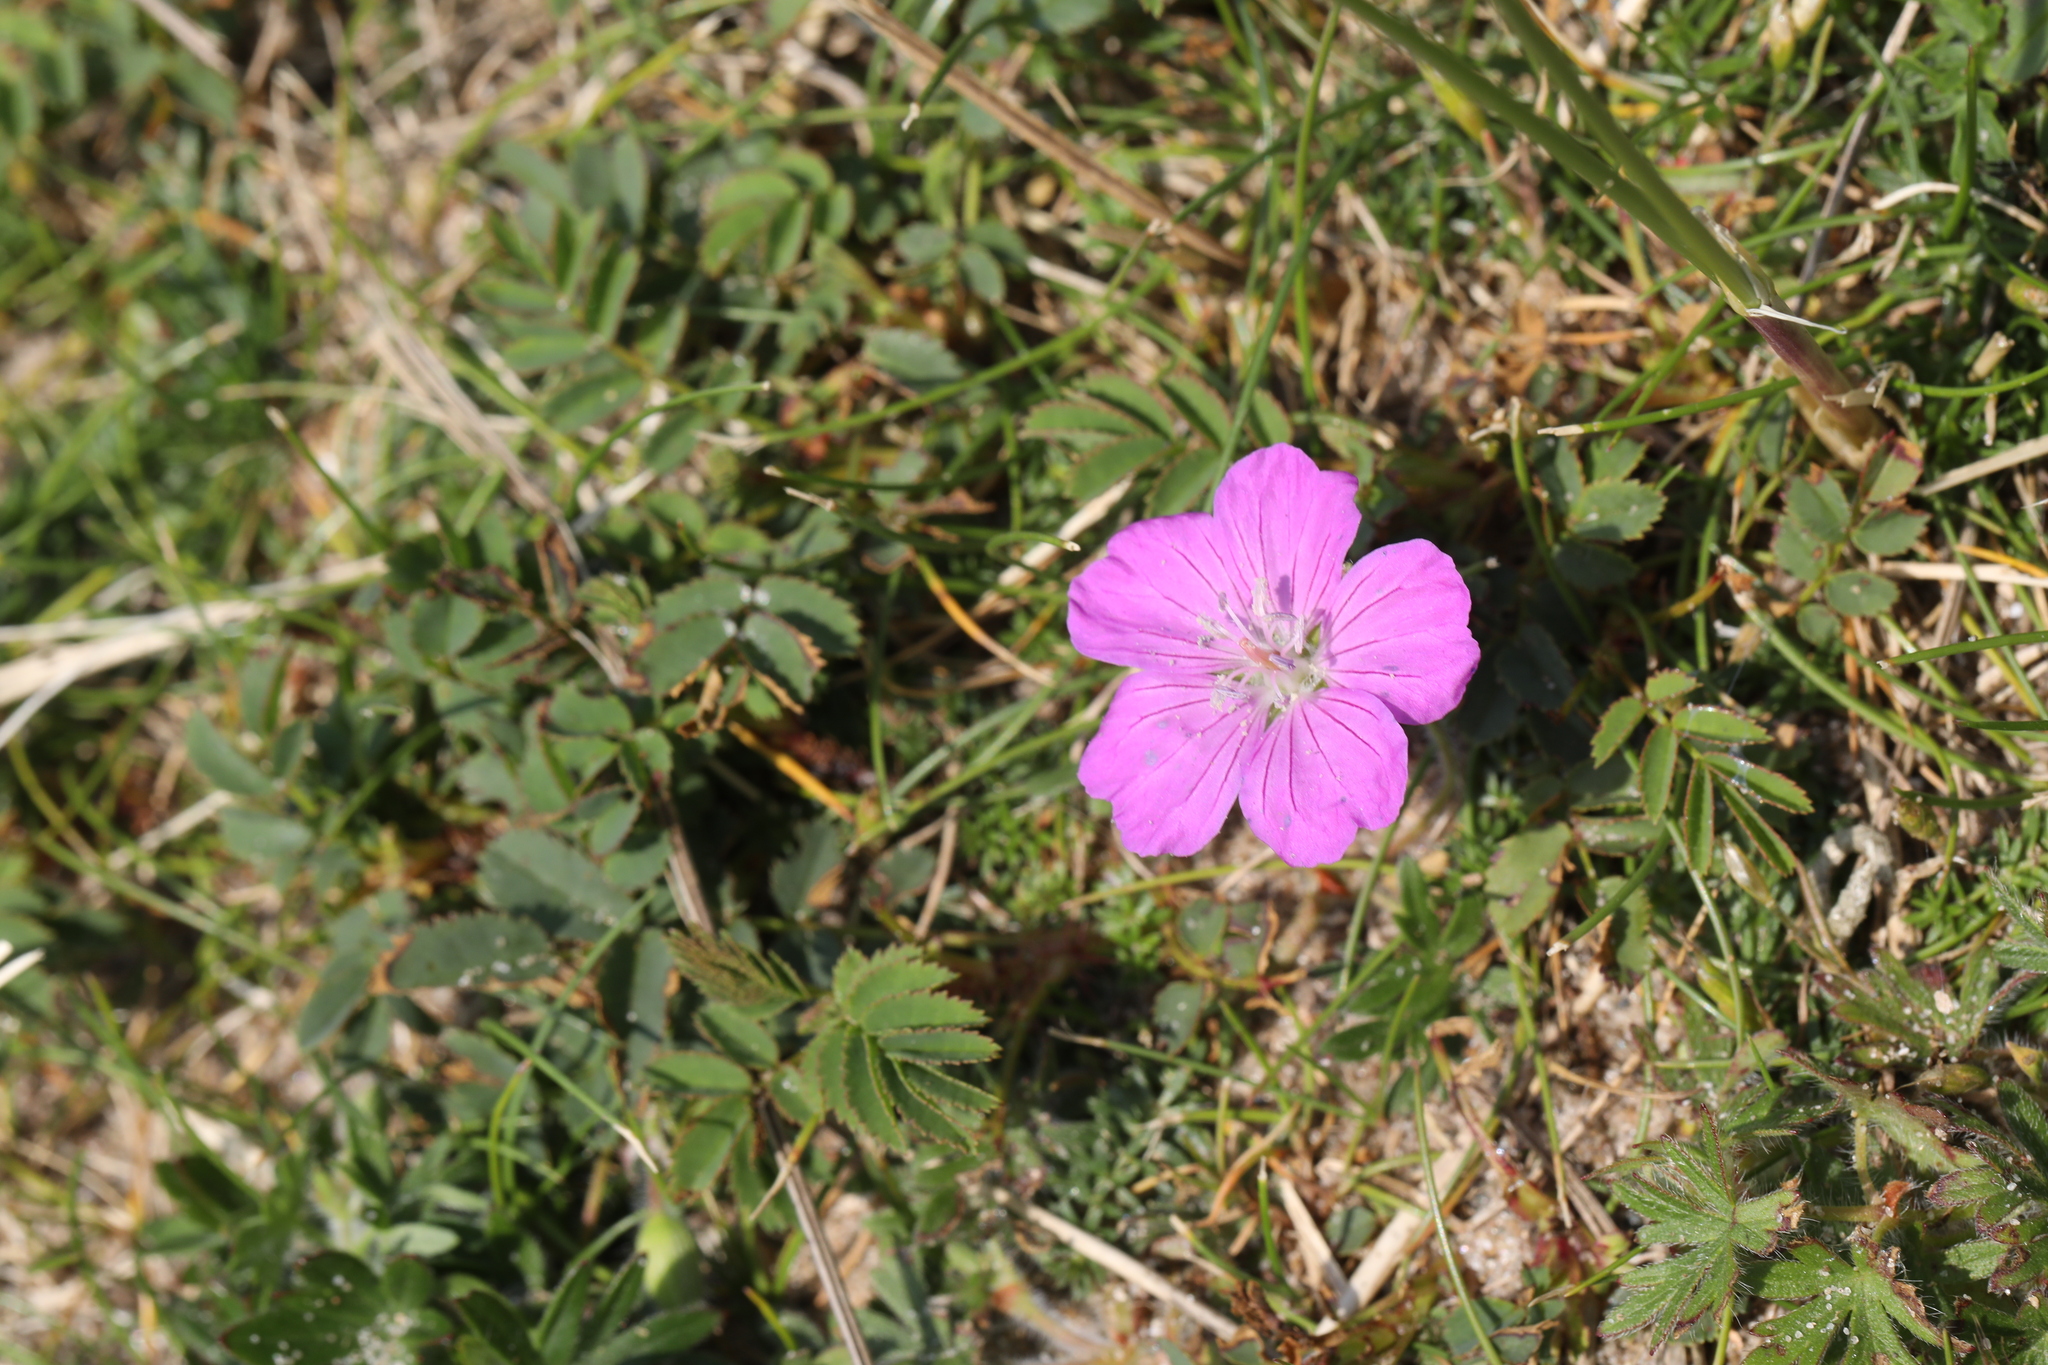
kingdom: Plantae
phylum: Tracheophyta
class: Magnoliopsida
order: Geraniales
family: Geraniaceae
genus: Geranium
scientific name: Geranium sanguineum
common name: Bloody crane's-bill
